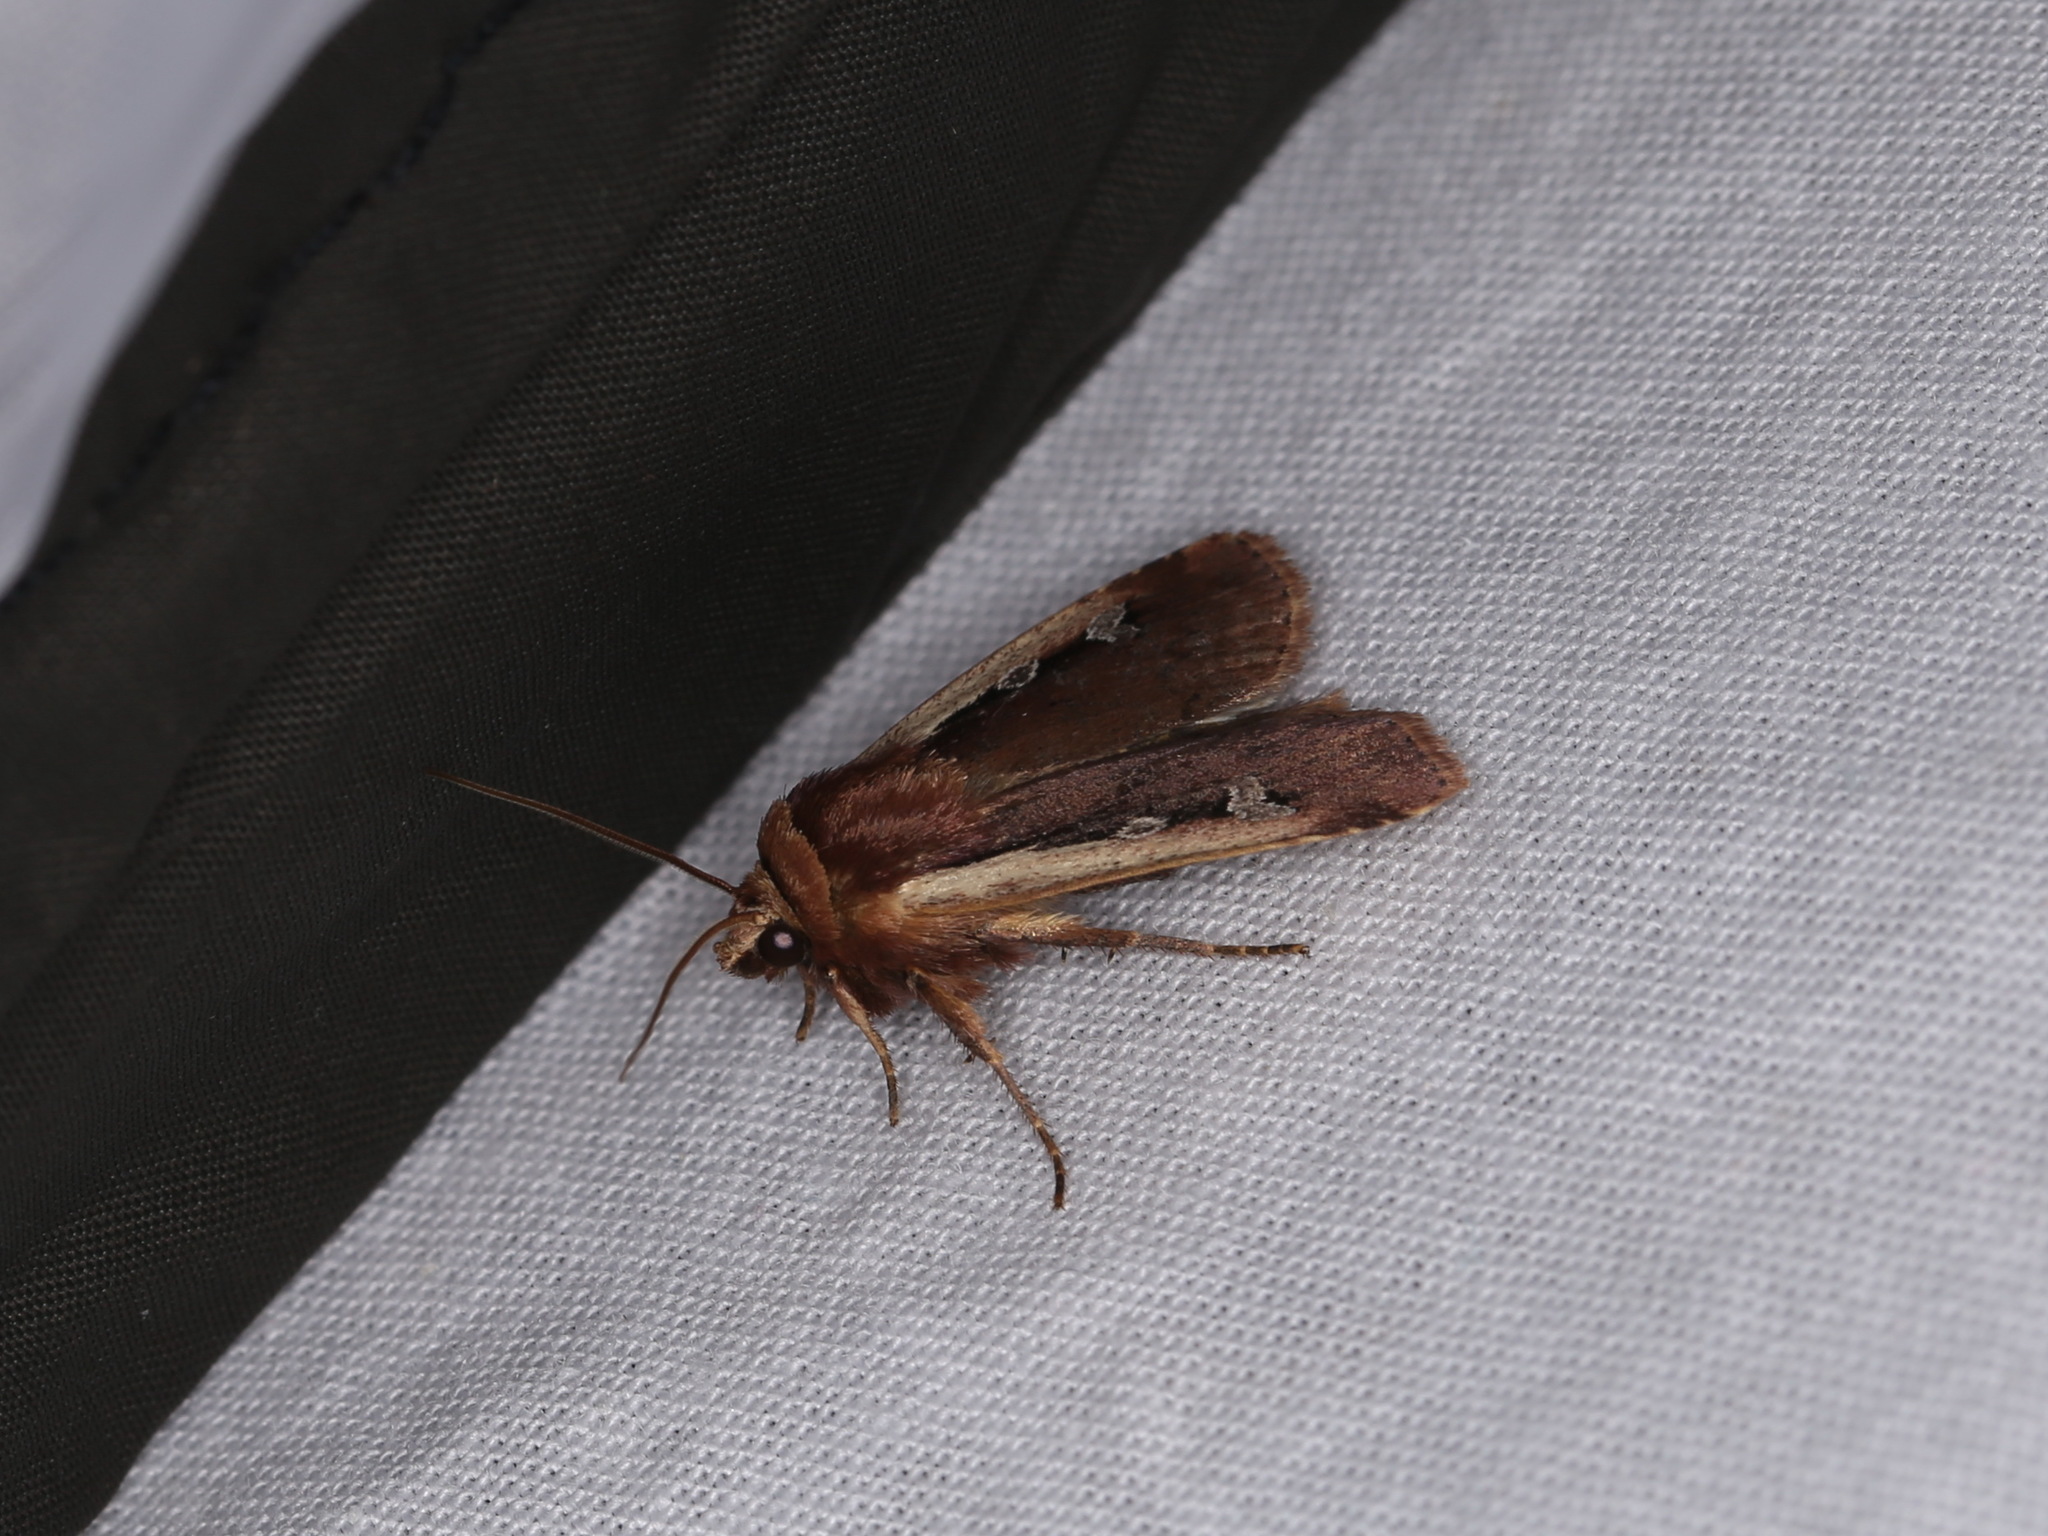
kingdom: Animalia
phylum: Arthropoda
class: Insecta
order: Lepidoptera
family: Noctuidae
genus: Ochropleura
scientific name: Ochropleura plecta
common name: Flame shoulder
